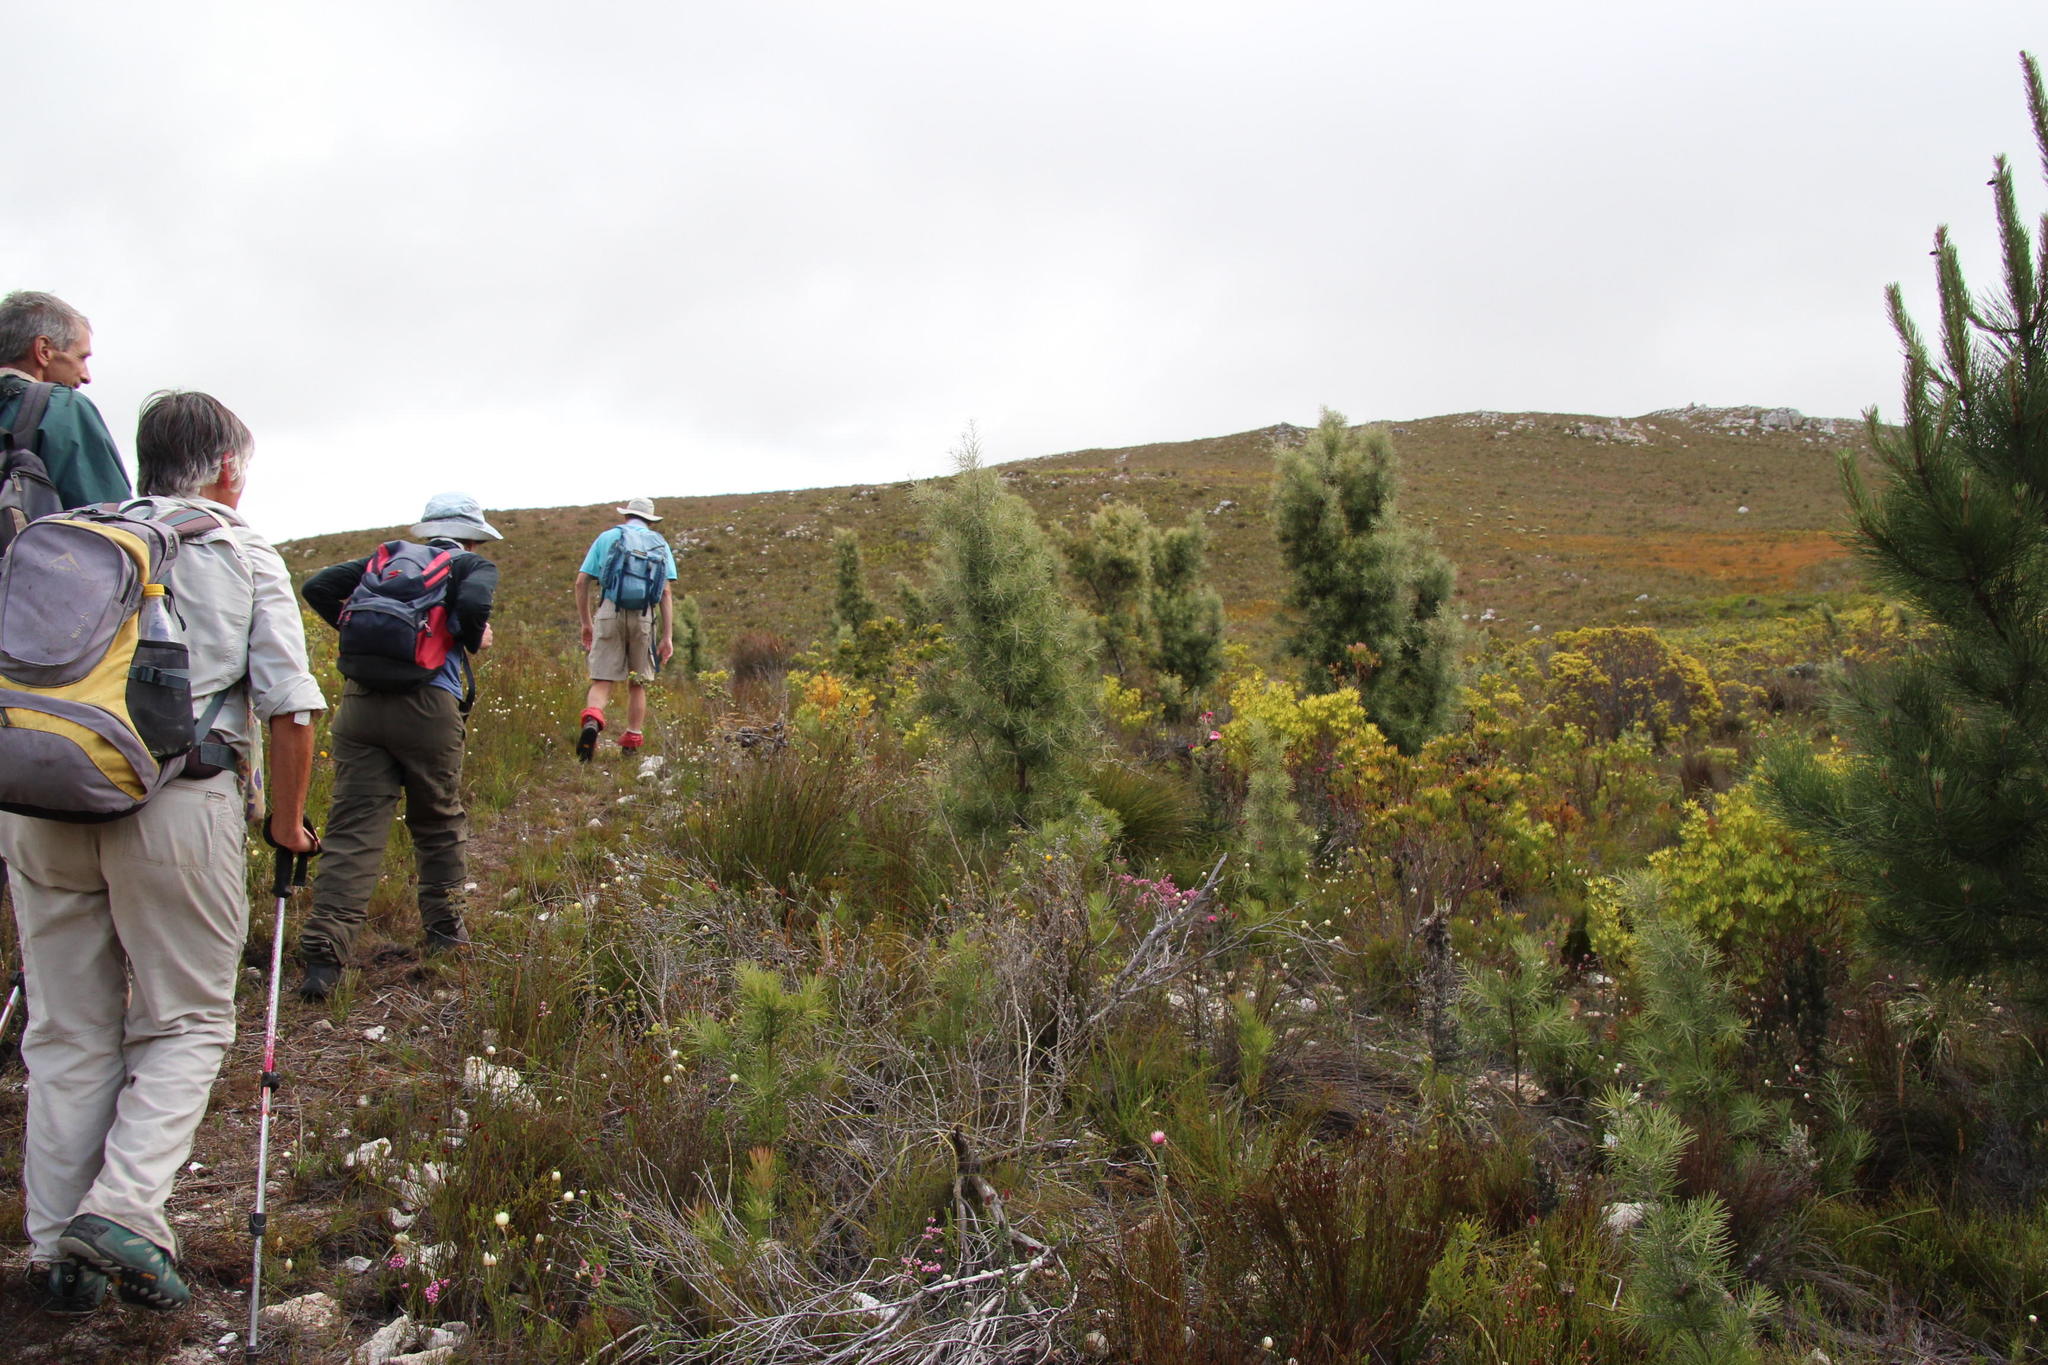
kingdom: Plantae
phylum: Tracheophyta
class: Magnoliopsida
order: Proteales
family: Proteaceae
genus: Hakea
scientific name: Hakea gibbosa
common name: Rock hakea
